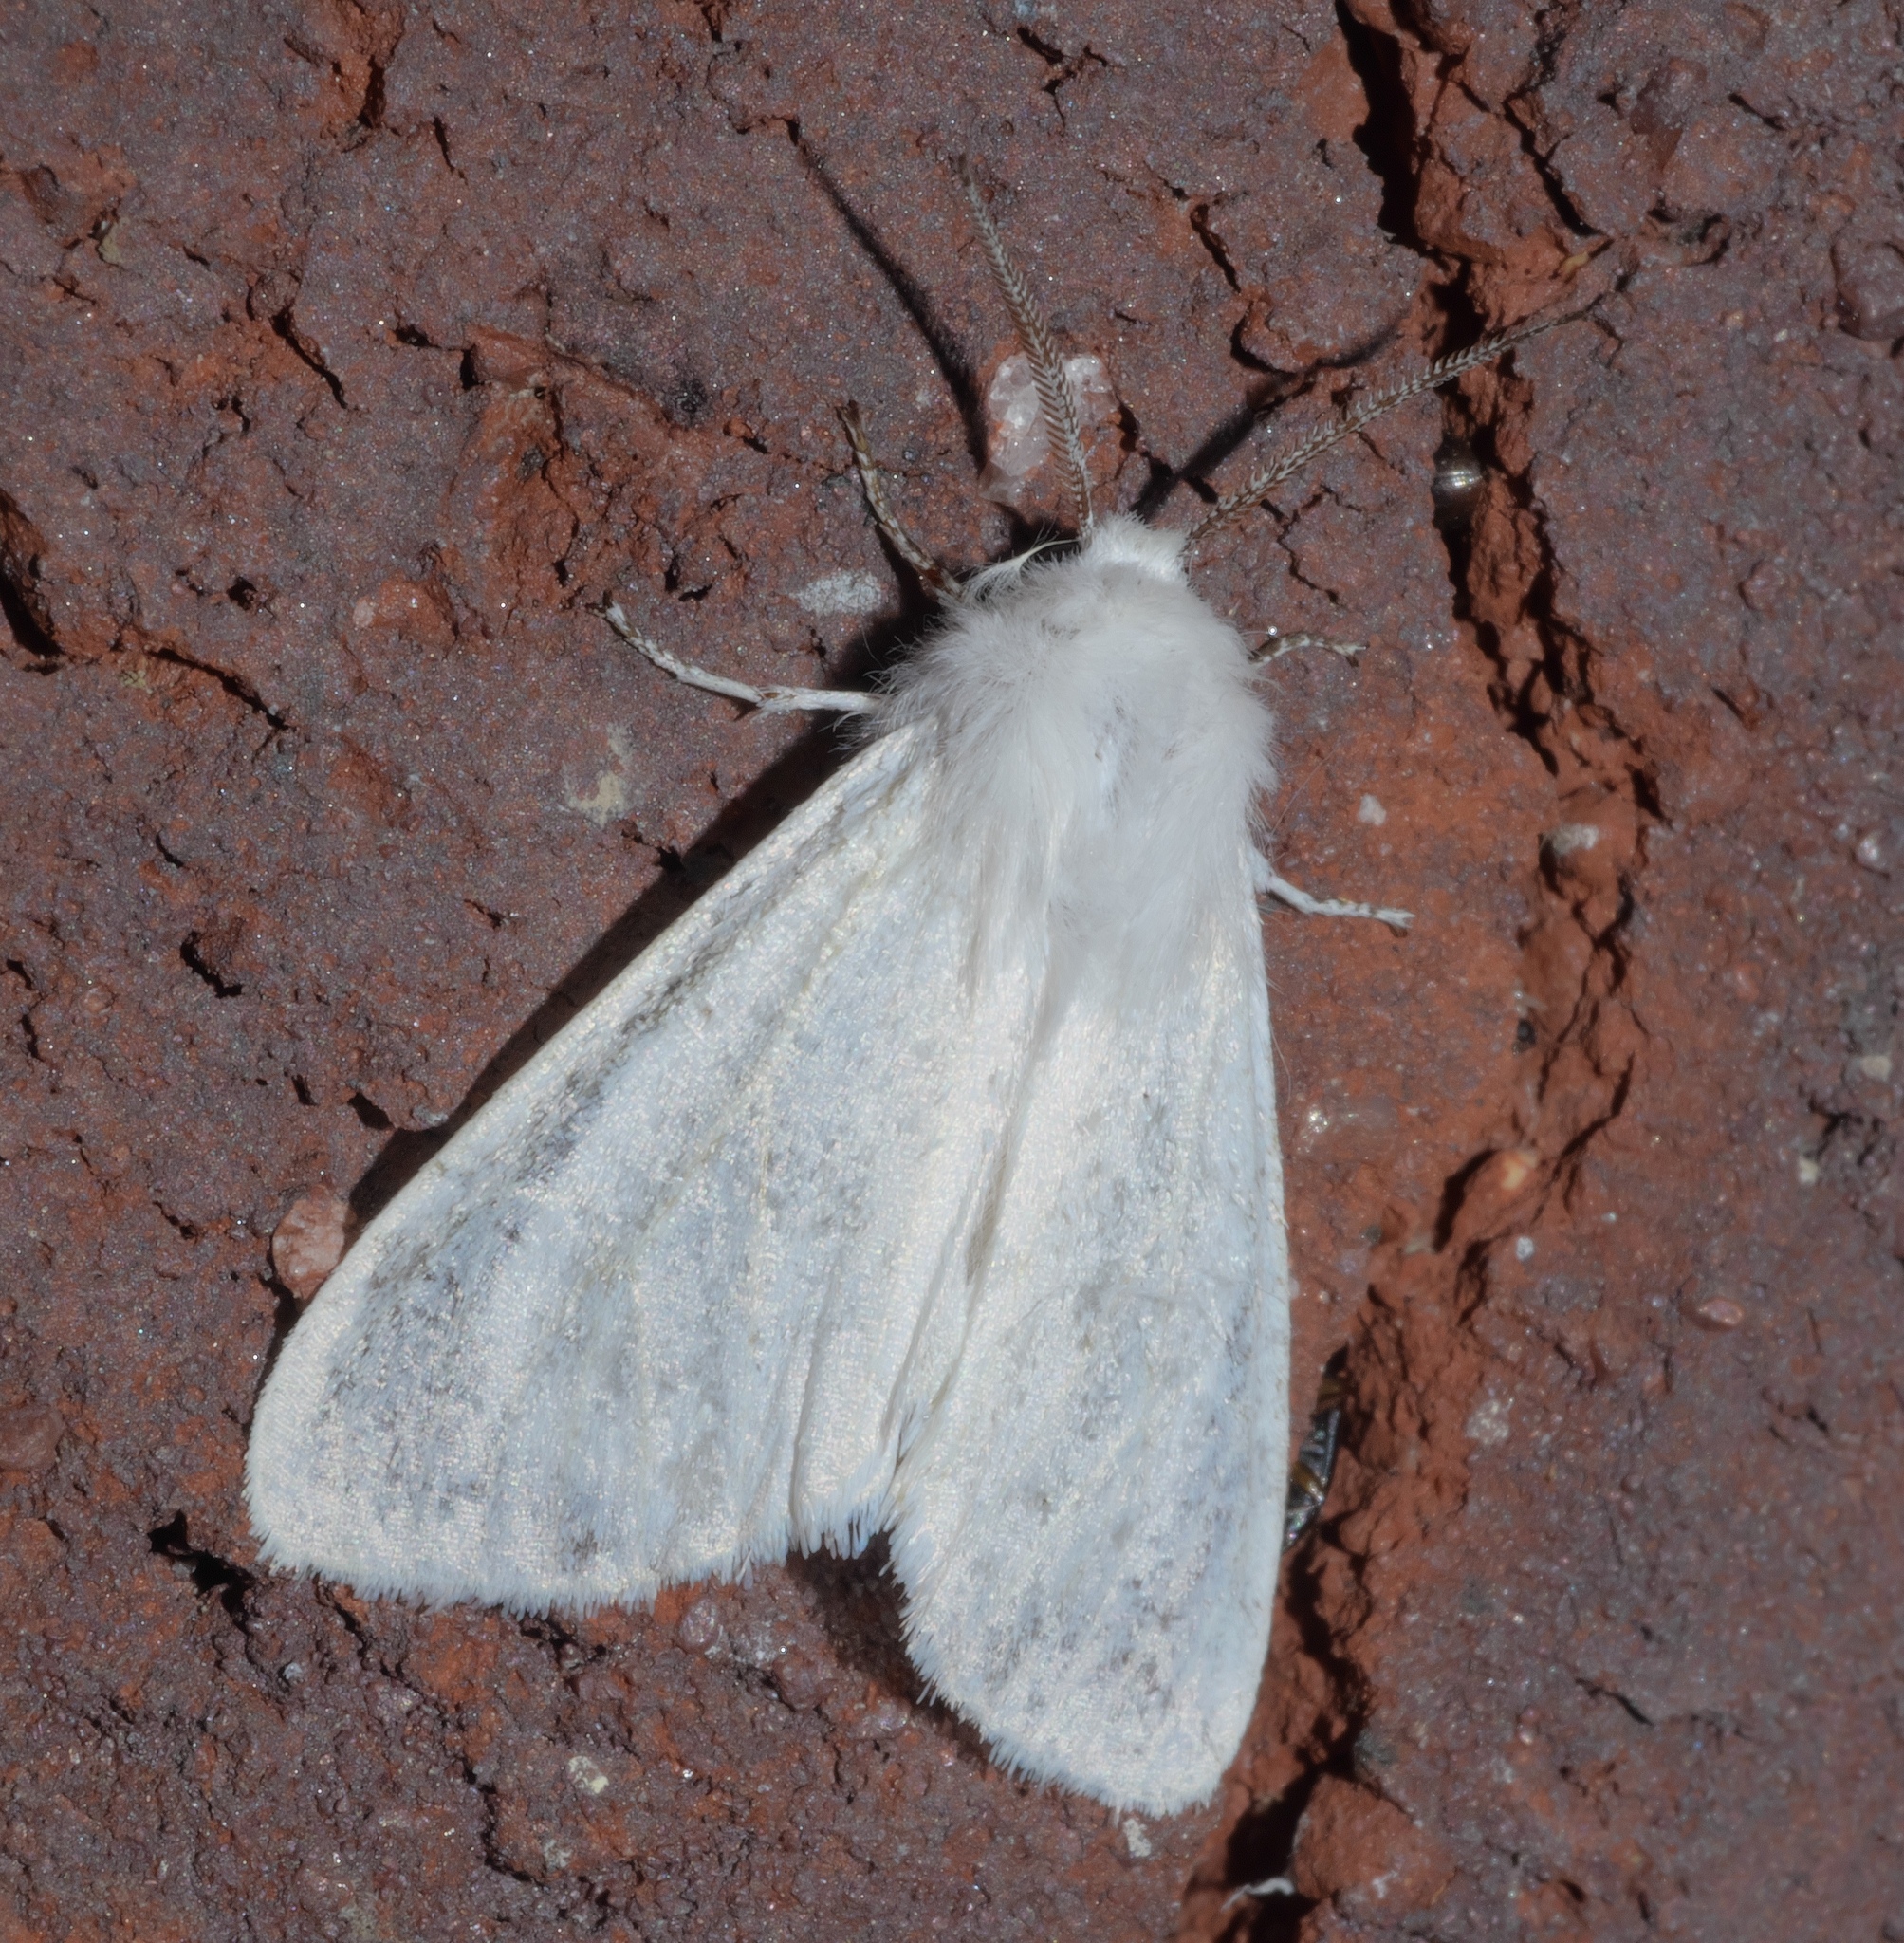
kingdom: Animalia
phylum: Arthropoda
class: Insecta
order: Lepidoptera
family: Erebidae
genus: Hyphantria
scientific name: Hyphantria cunea
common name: American white moth
